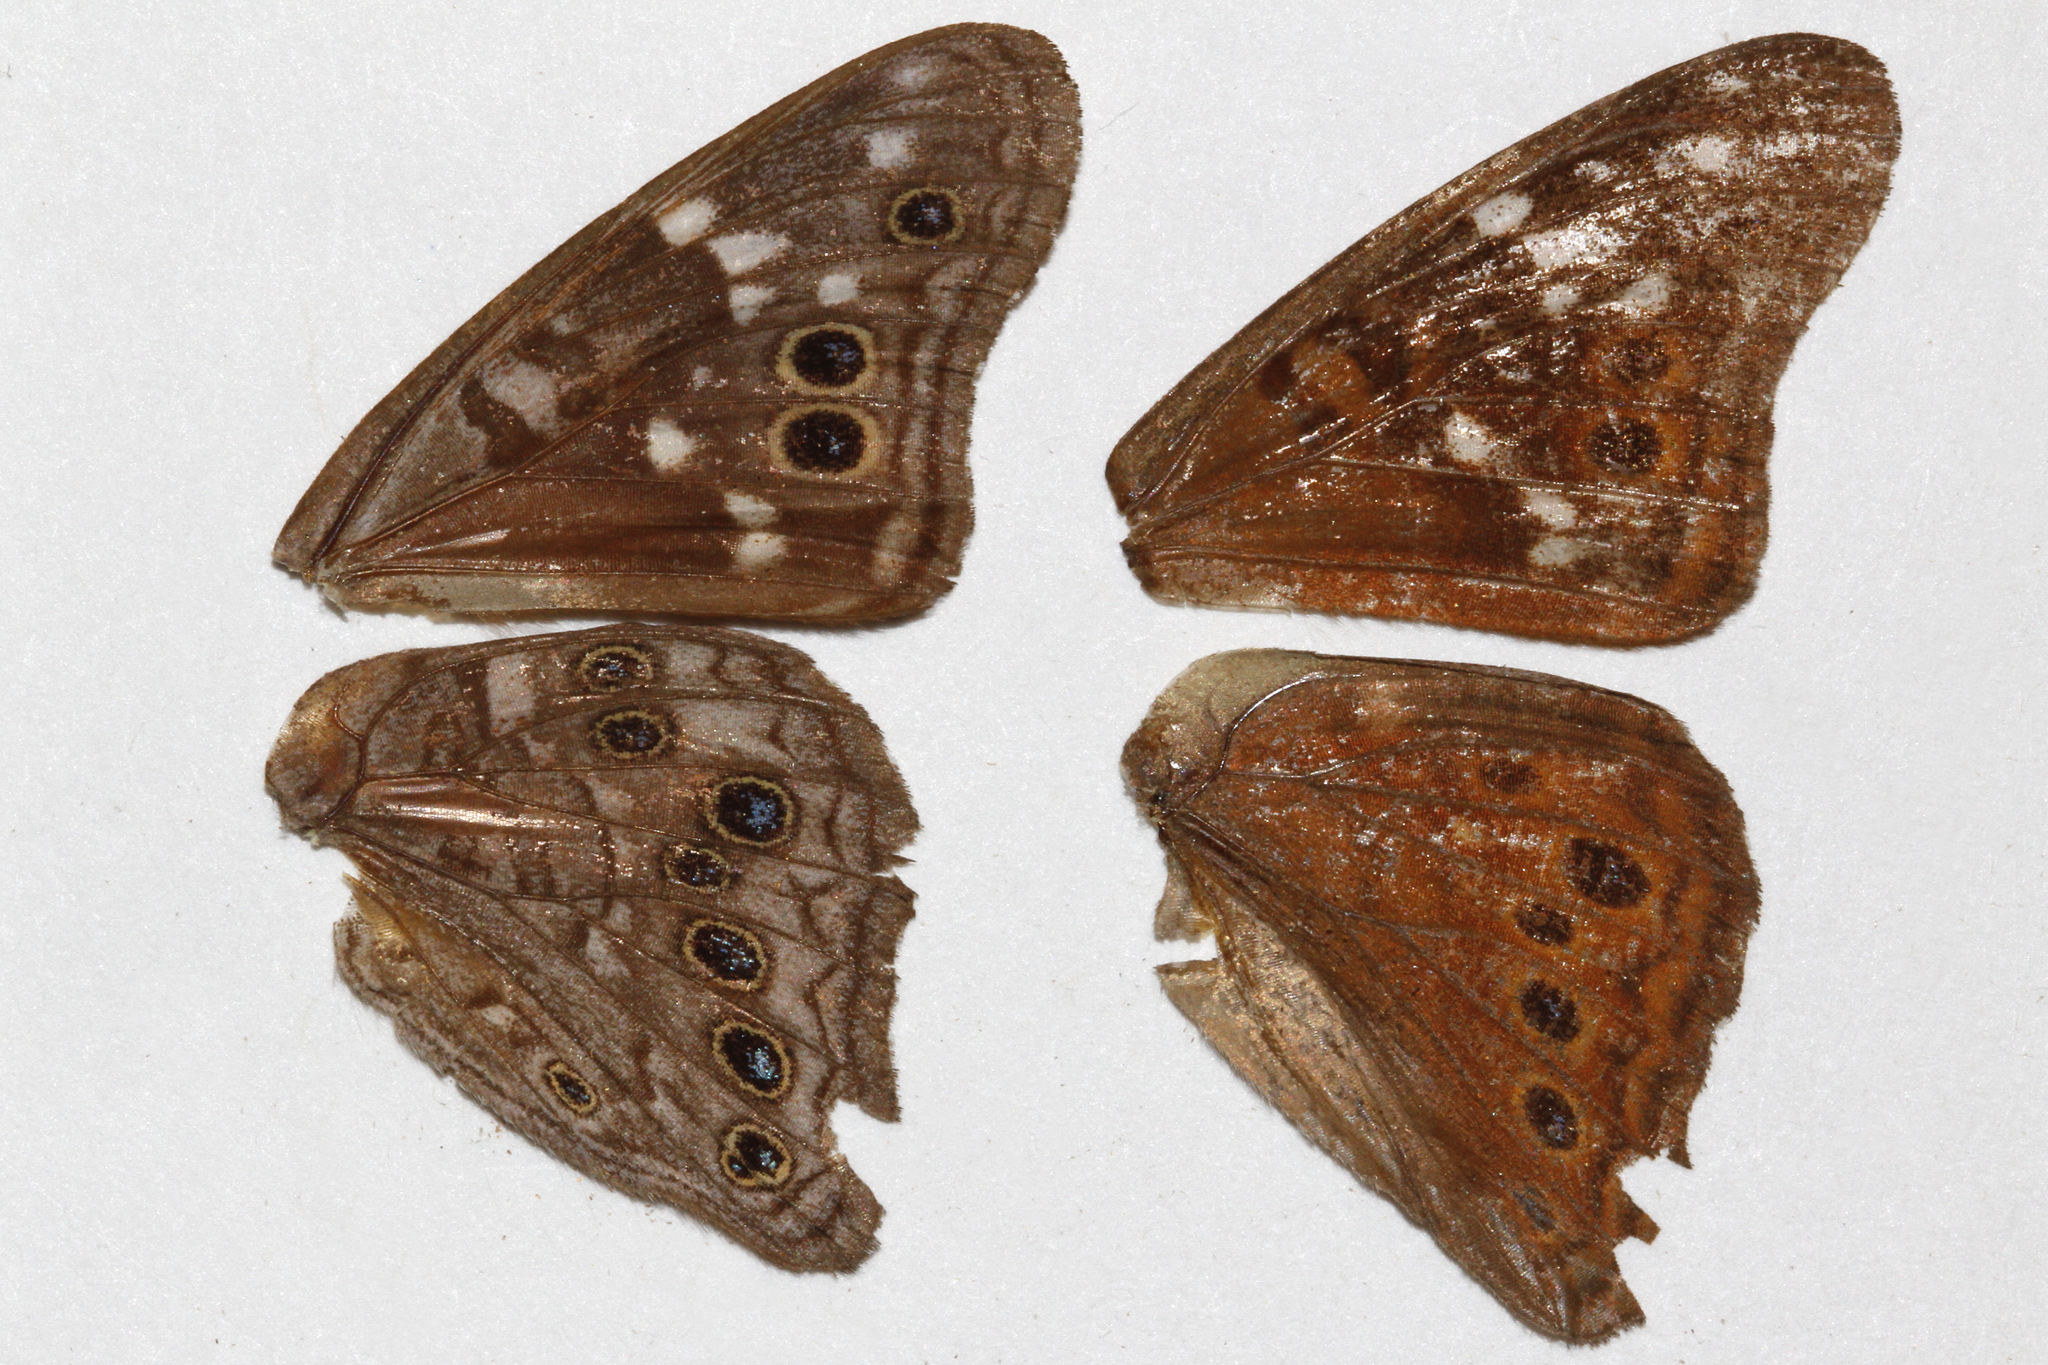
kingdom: Animalia
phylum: Arthropoda
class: Insecta
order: Lepidoptera
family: Nymphalidae
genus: Asterocampa
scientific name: Asterocampa leilia
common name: Empress leilia
